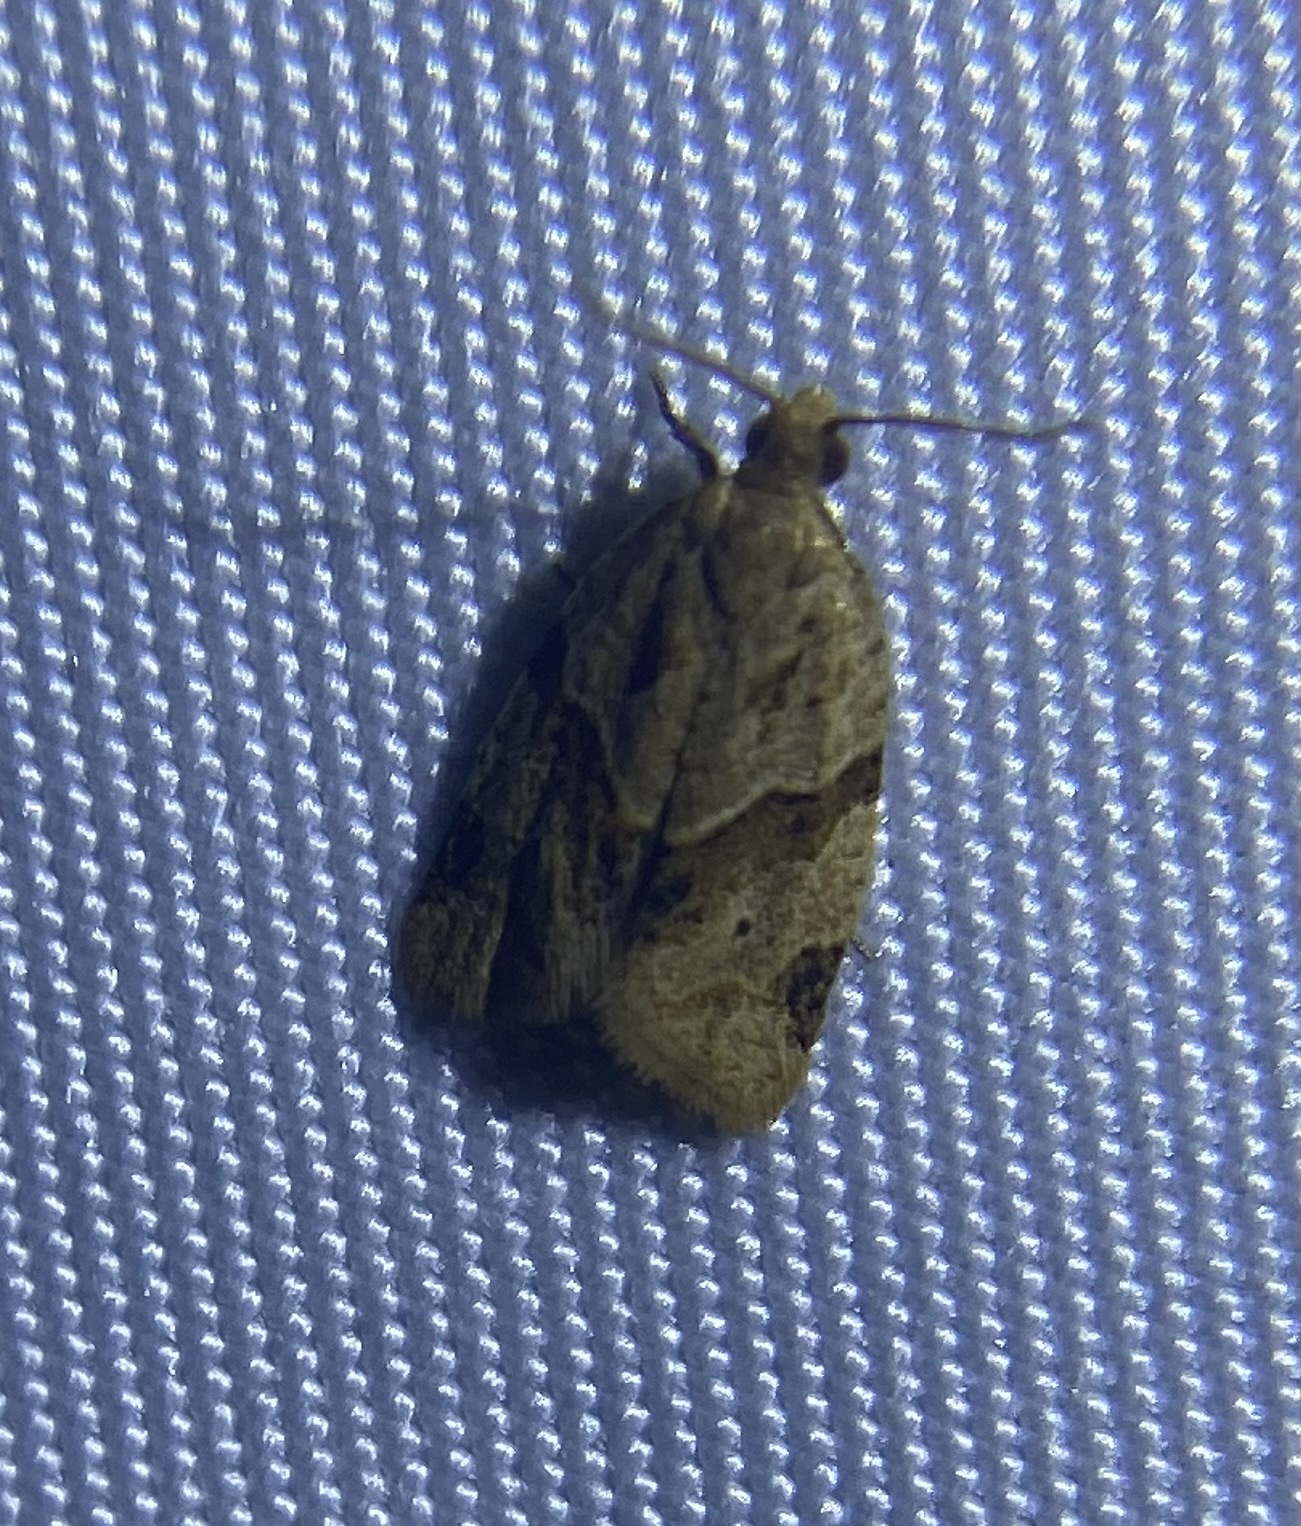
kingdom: Animalia
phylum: Arthropoda
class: Insecta
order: Lepidoptera
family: Tortricidae
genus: Clepsis
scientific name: Clepsis peritana
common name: Garden tortrix
